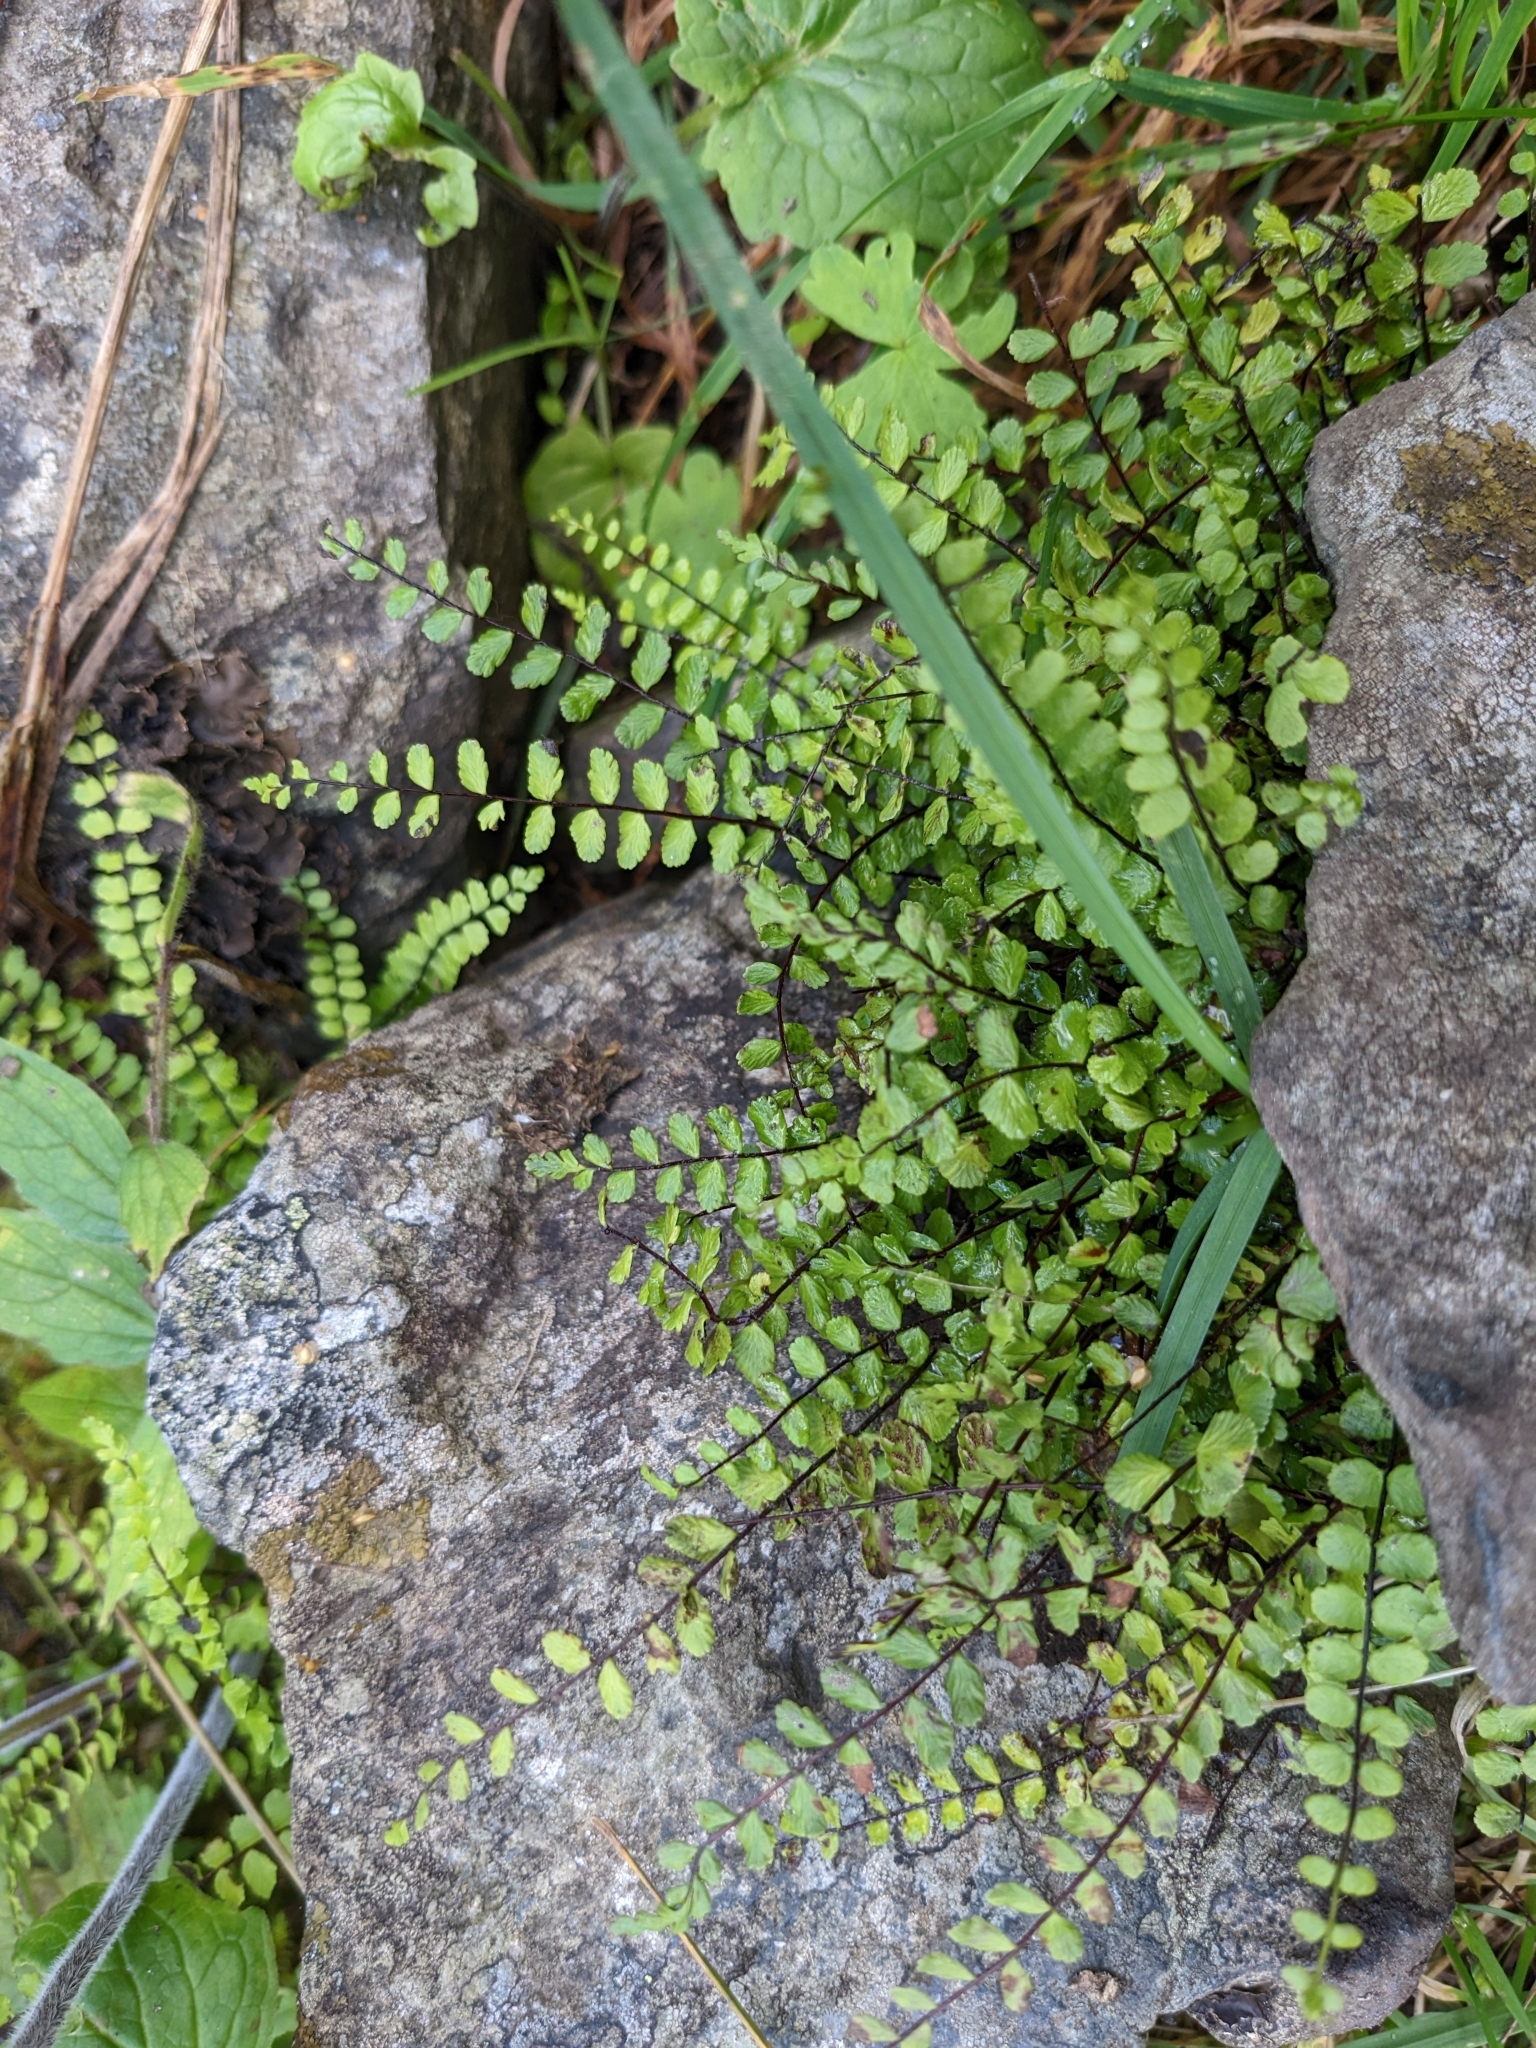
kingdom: Plantae
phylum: Tracheophyta
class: Polypodiopsida
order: Polypodiales
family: Aspleniaceae
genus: Asplenium
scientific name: Asplenium trichomanes
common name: Maidenhair spleenwort
